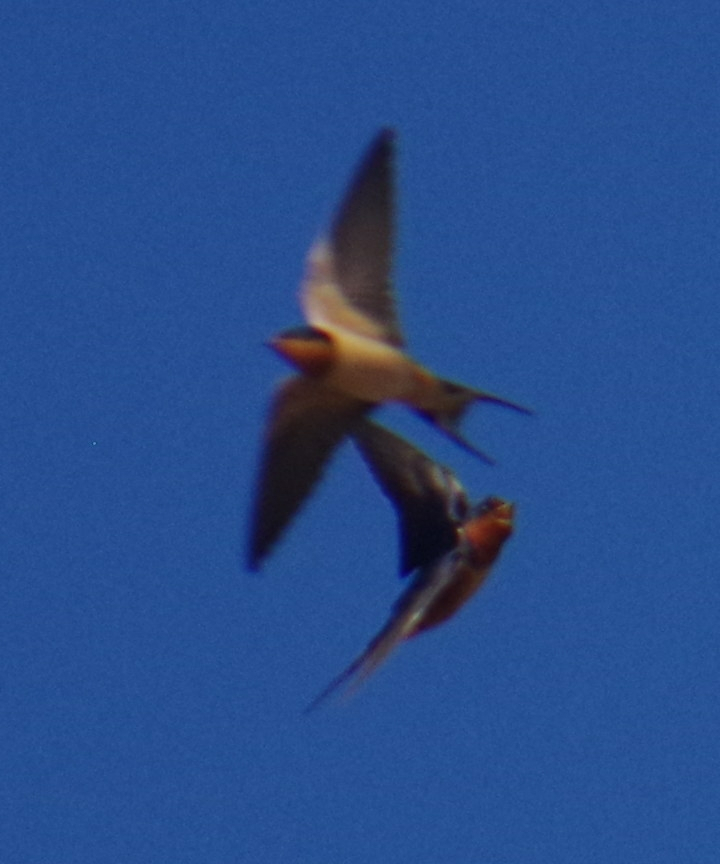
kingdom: Animalia
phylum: Chordata
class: Aves
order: Passeriformes
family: Hirundinidae
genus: Hirundo
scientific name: Hirundo rustica
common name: Barn swallow
